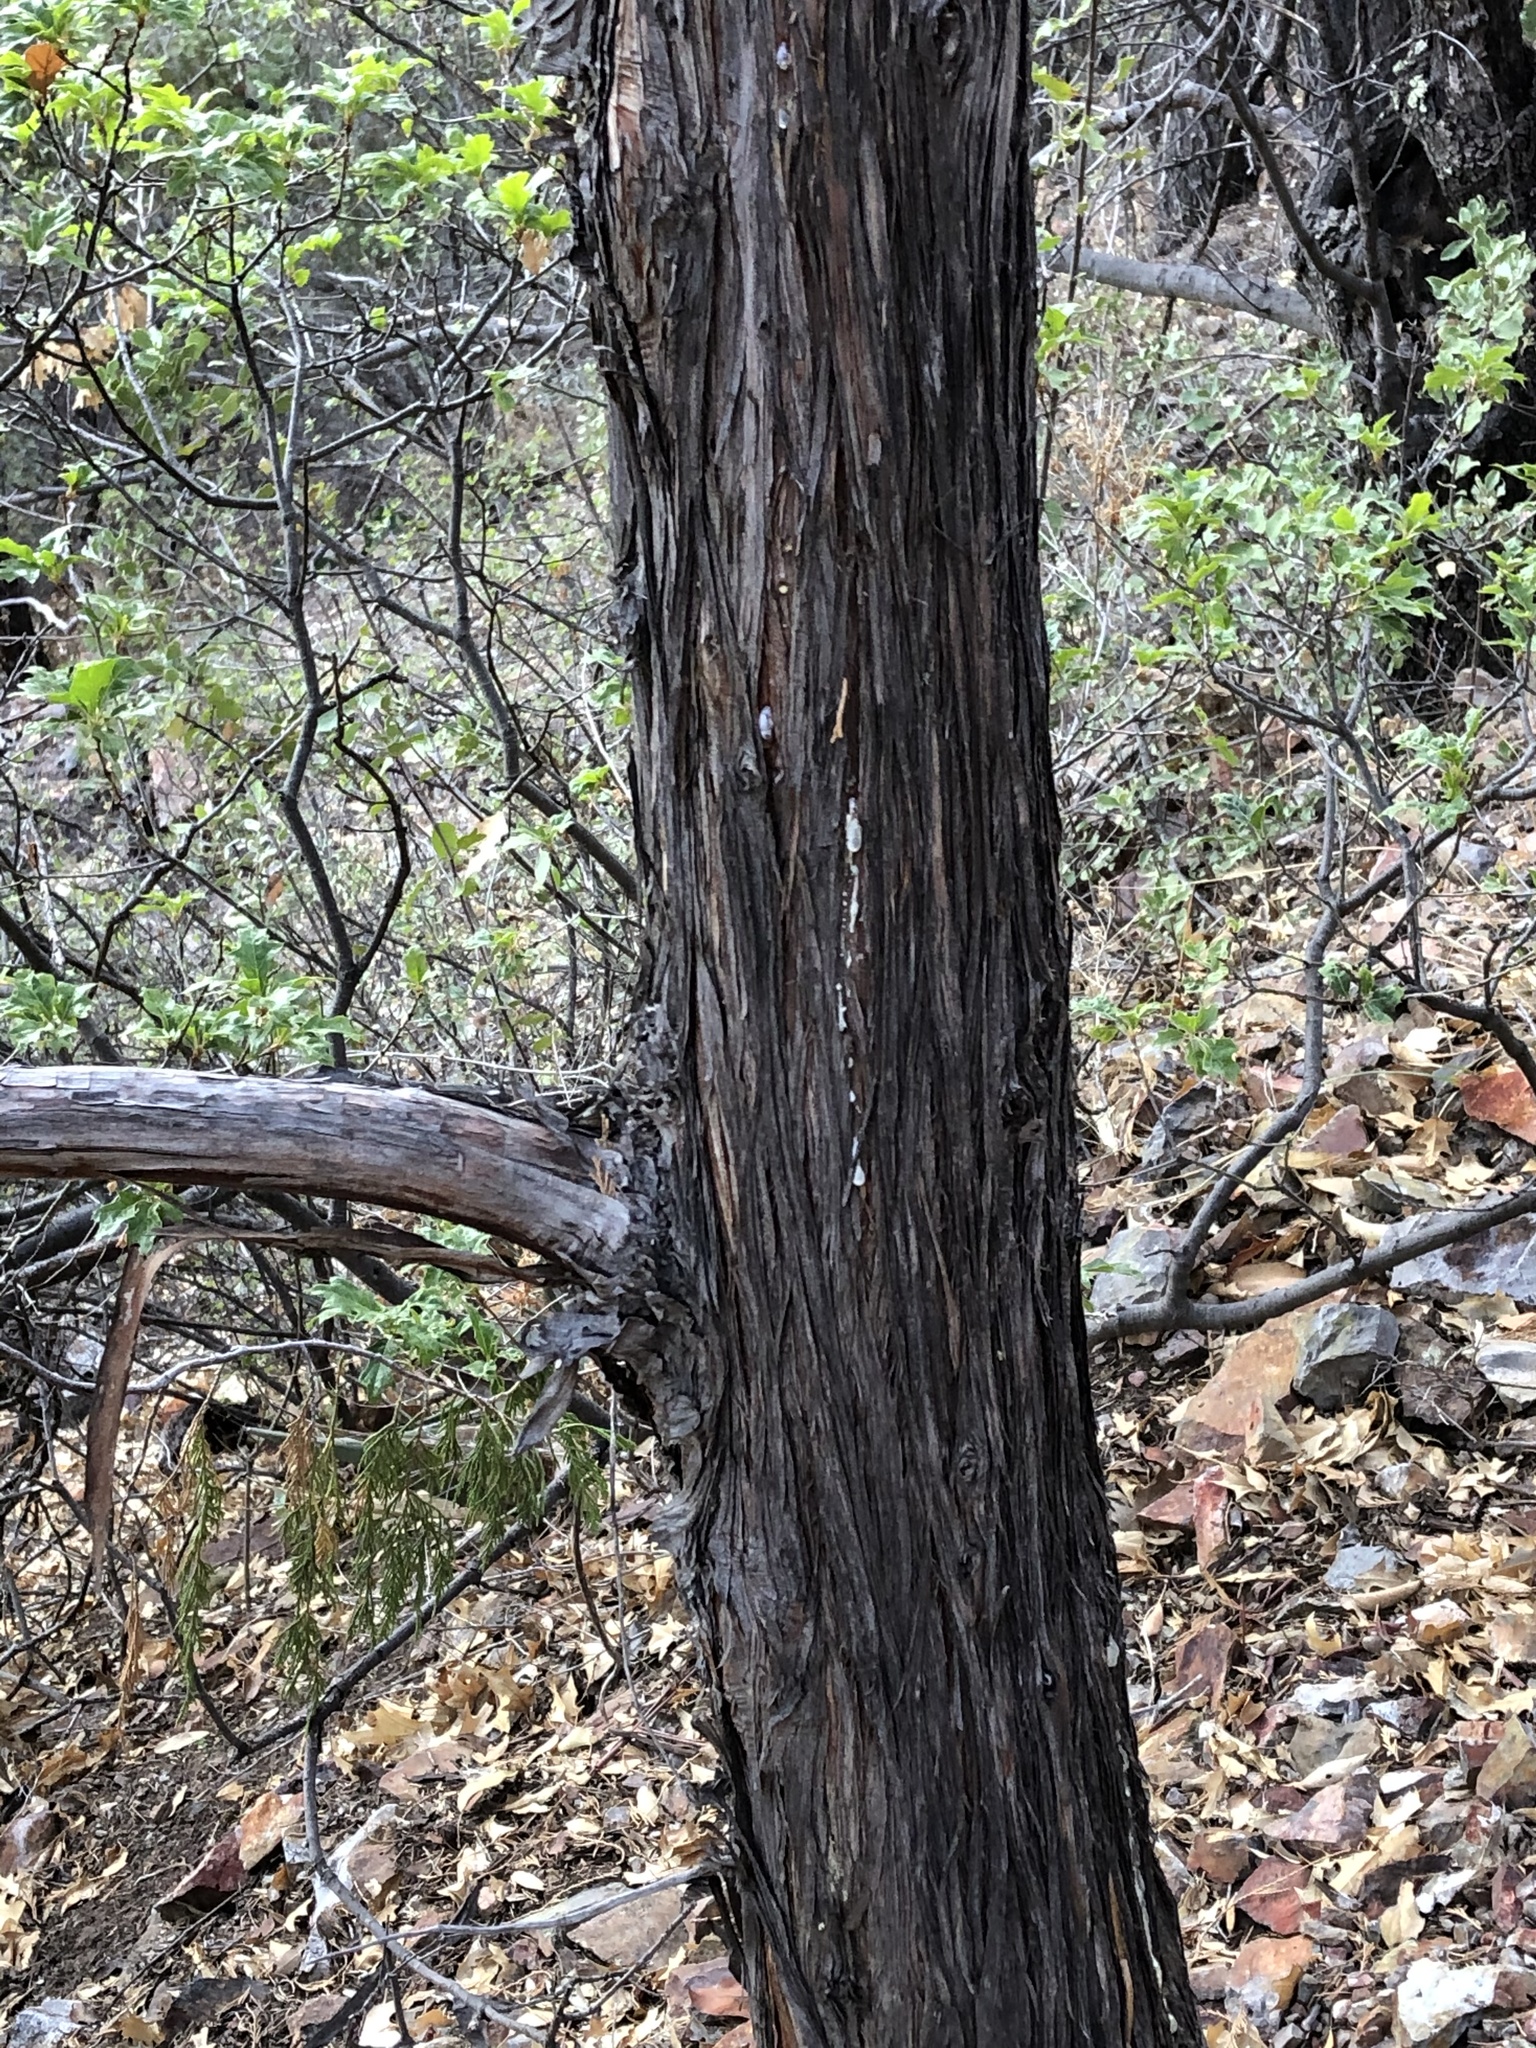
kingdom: Plantae
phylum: Tracheophyta
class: Pinopsida
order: Pinales
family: Cupressaceae
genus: Juniperus
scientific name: Juniperus flaccida
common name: Drooping juniper
